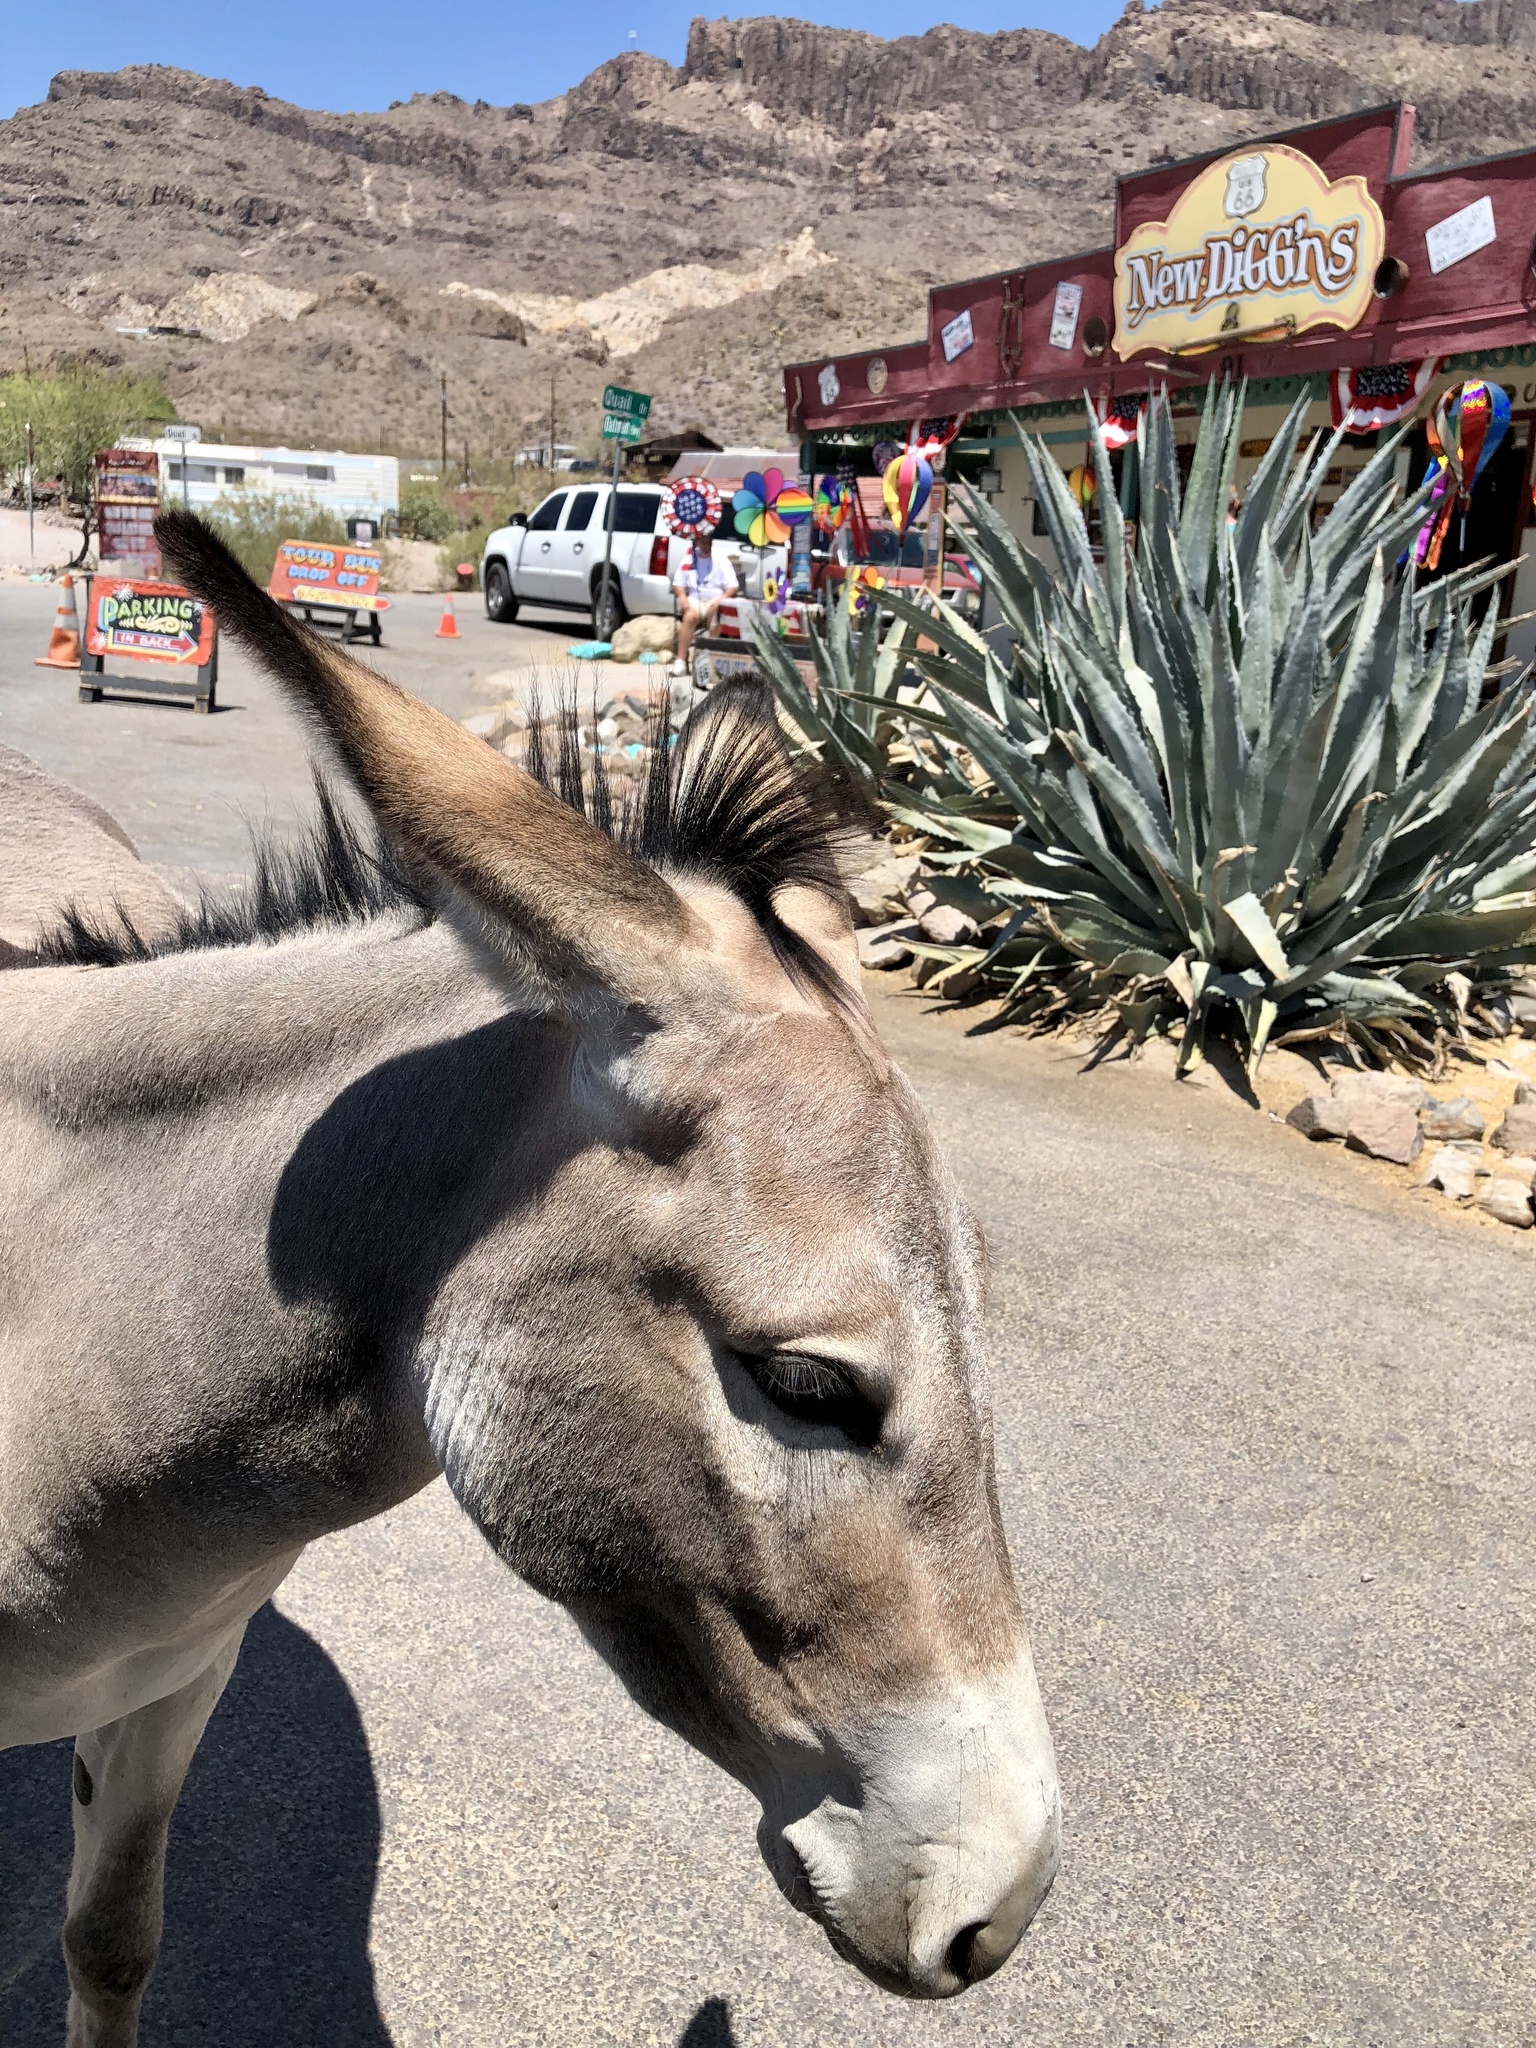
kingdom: Animalia
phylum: Chordata
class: Mammalia
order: Perissodactyla
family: Equidae
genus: Equus
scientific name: Equus asinus
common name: Ass
